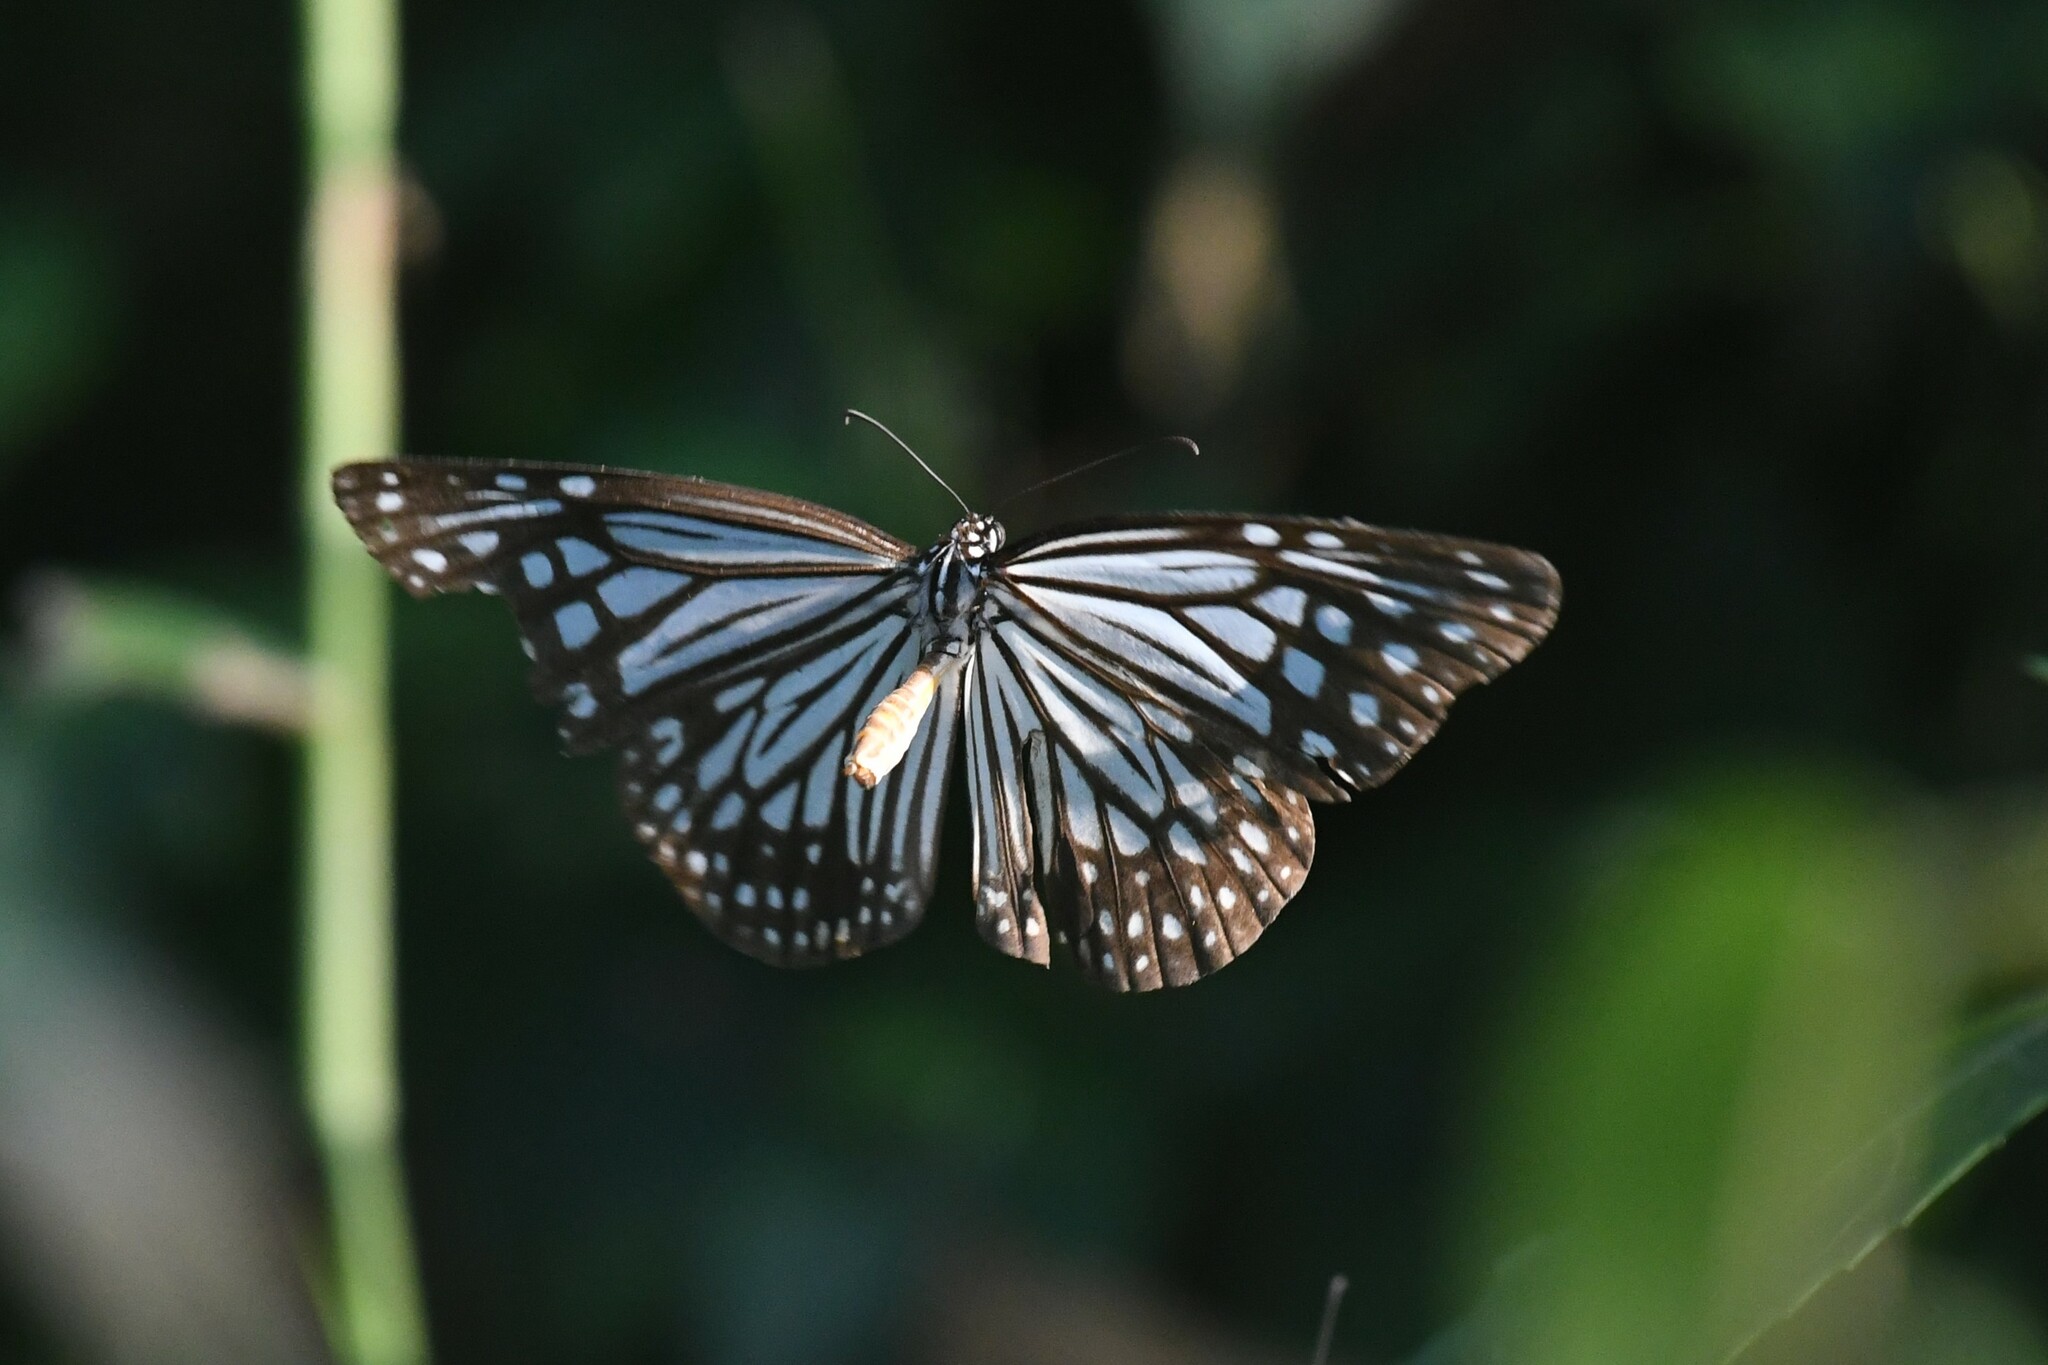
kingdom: Animalia
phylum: Arthropoda
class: Insecta
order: Lepidoptera
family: Nymphalidae
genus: Parantica
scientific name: Parantica aglea
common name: Glassy tiger
